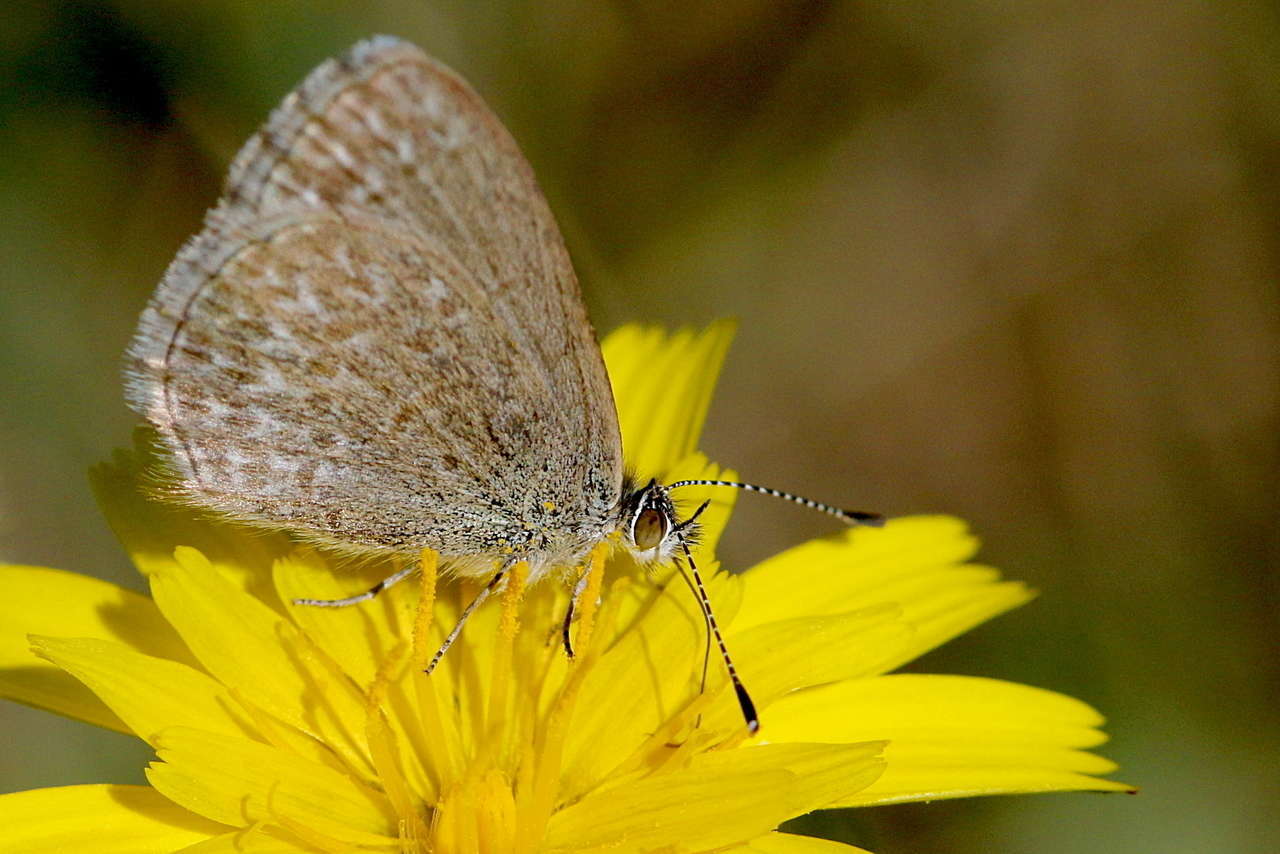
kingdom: Animalia
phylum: Arthropoda
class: Insecta
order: Lepidoptera
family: Lycaenidae
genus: Zizina
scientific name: Zizina labradus
